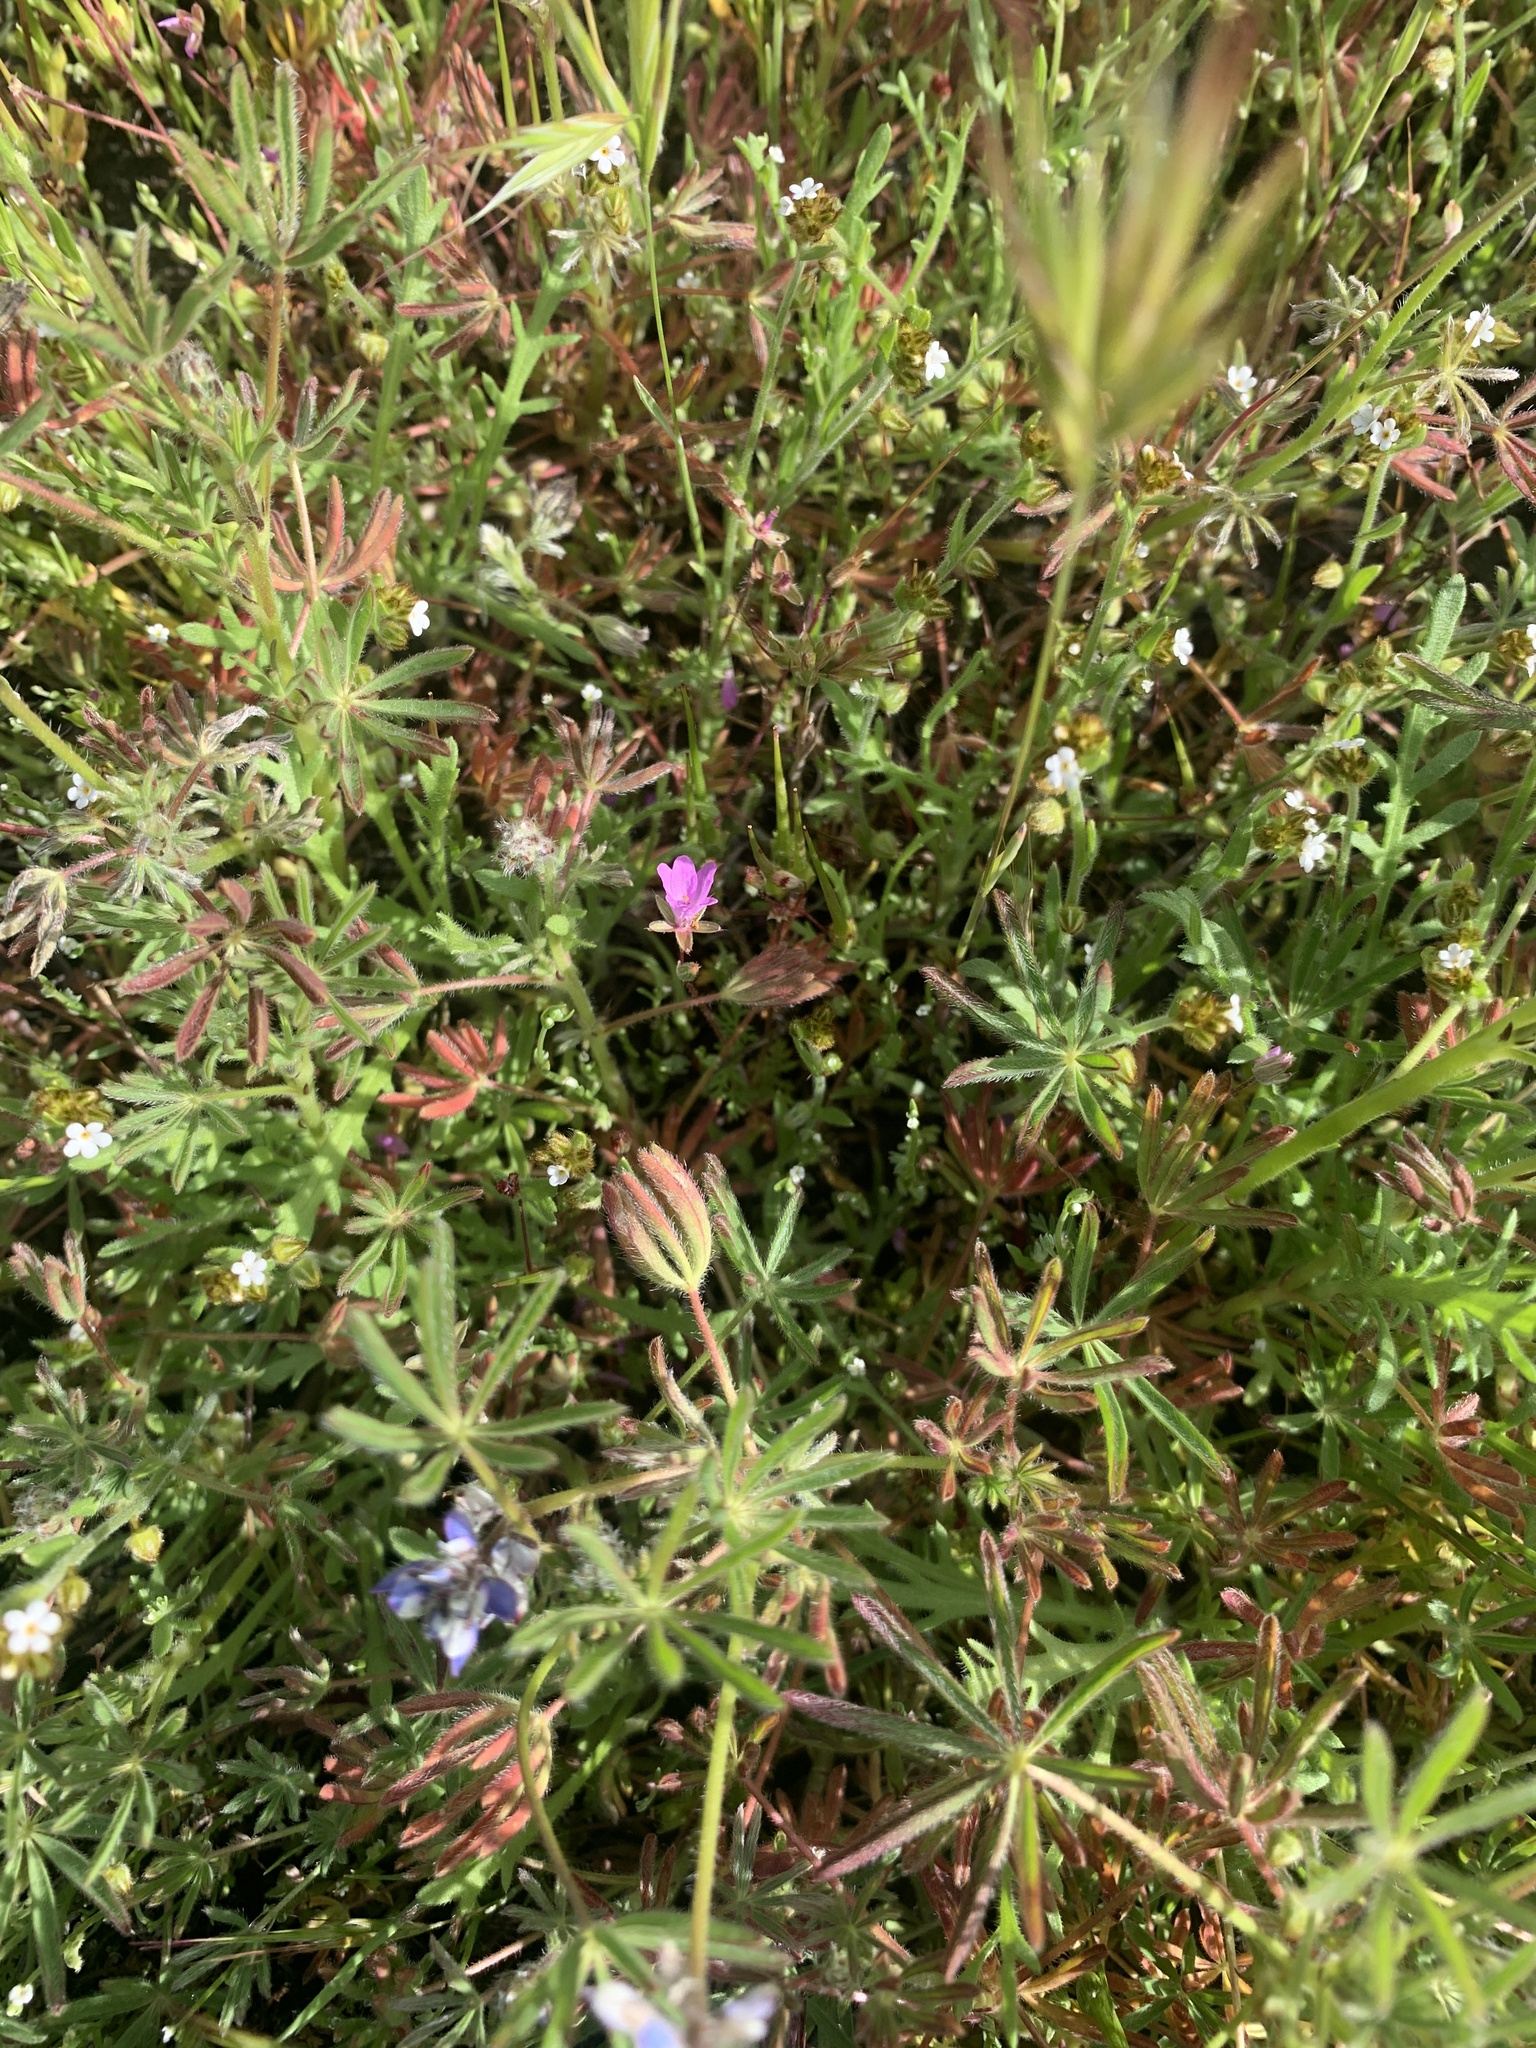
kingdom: Plantae
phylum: Tracheophyta
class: Magnoliopsida
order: Fabales
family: Fabaceae
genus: Lupinus
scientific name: Lupinus bicolor
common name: Miniature lupine
